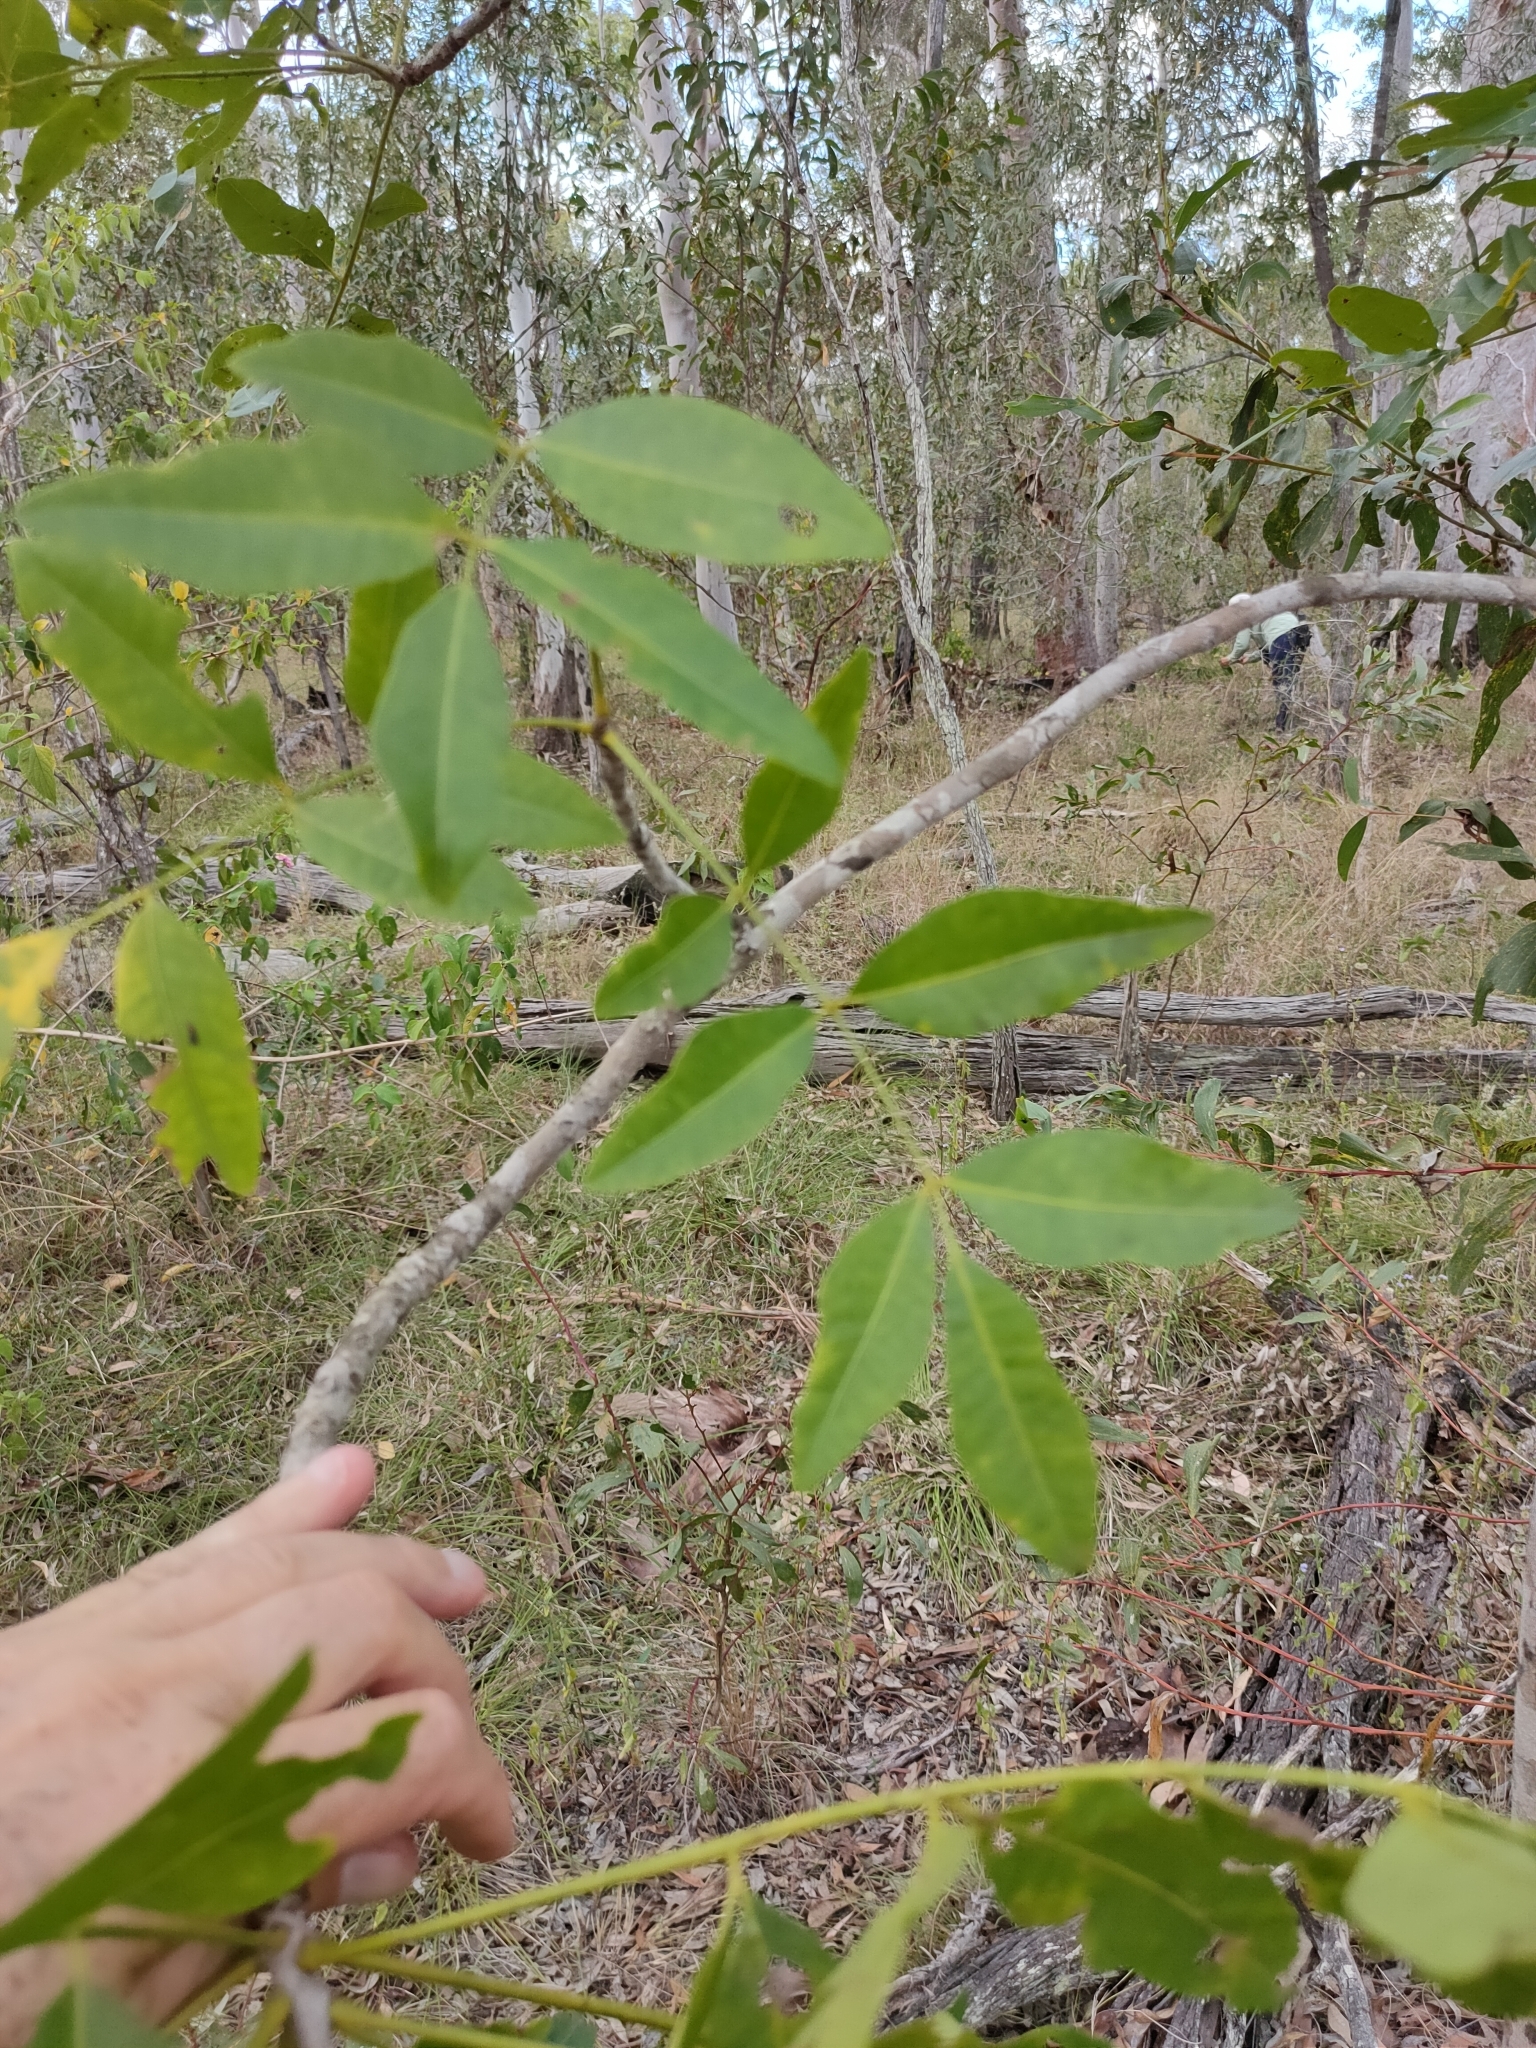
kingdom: Plantae
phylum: Tracheophyta
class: Magnoliopsida
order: Sapindales
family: Rutaceae
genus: Flindersia
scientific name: Flindersia australis
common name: Australian-teak
